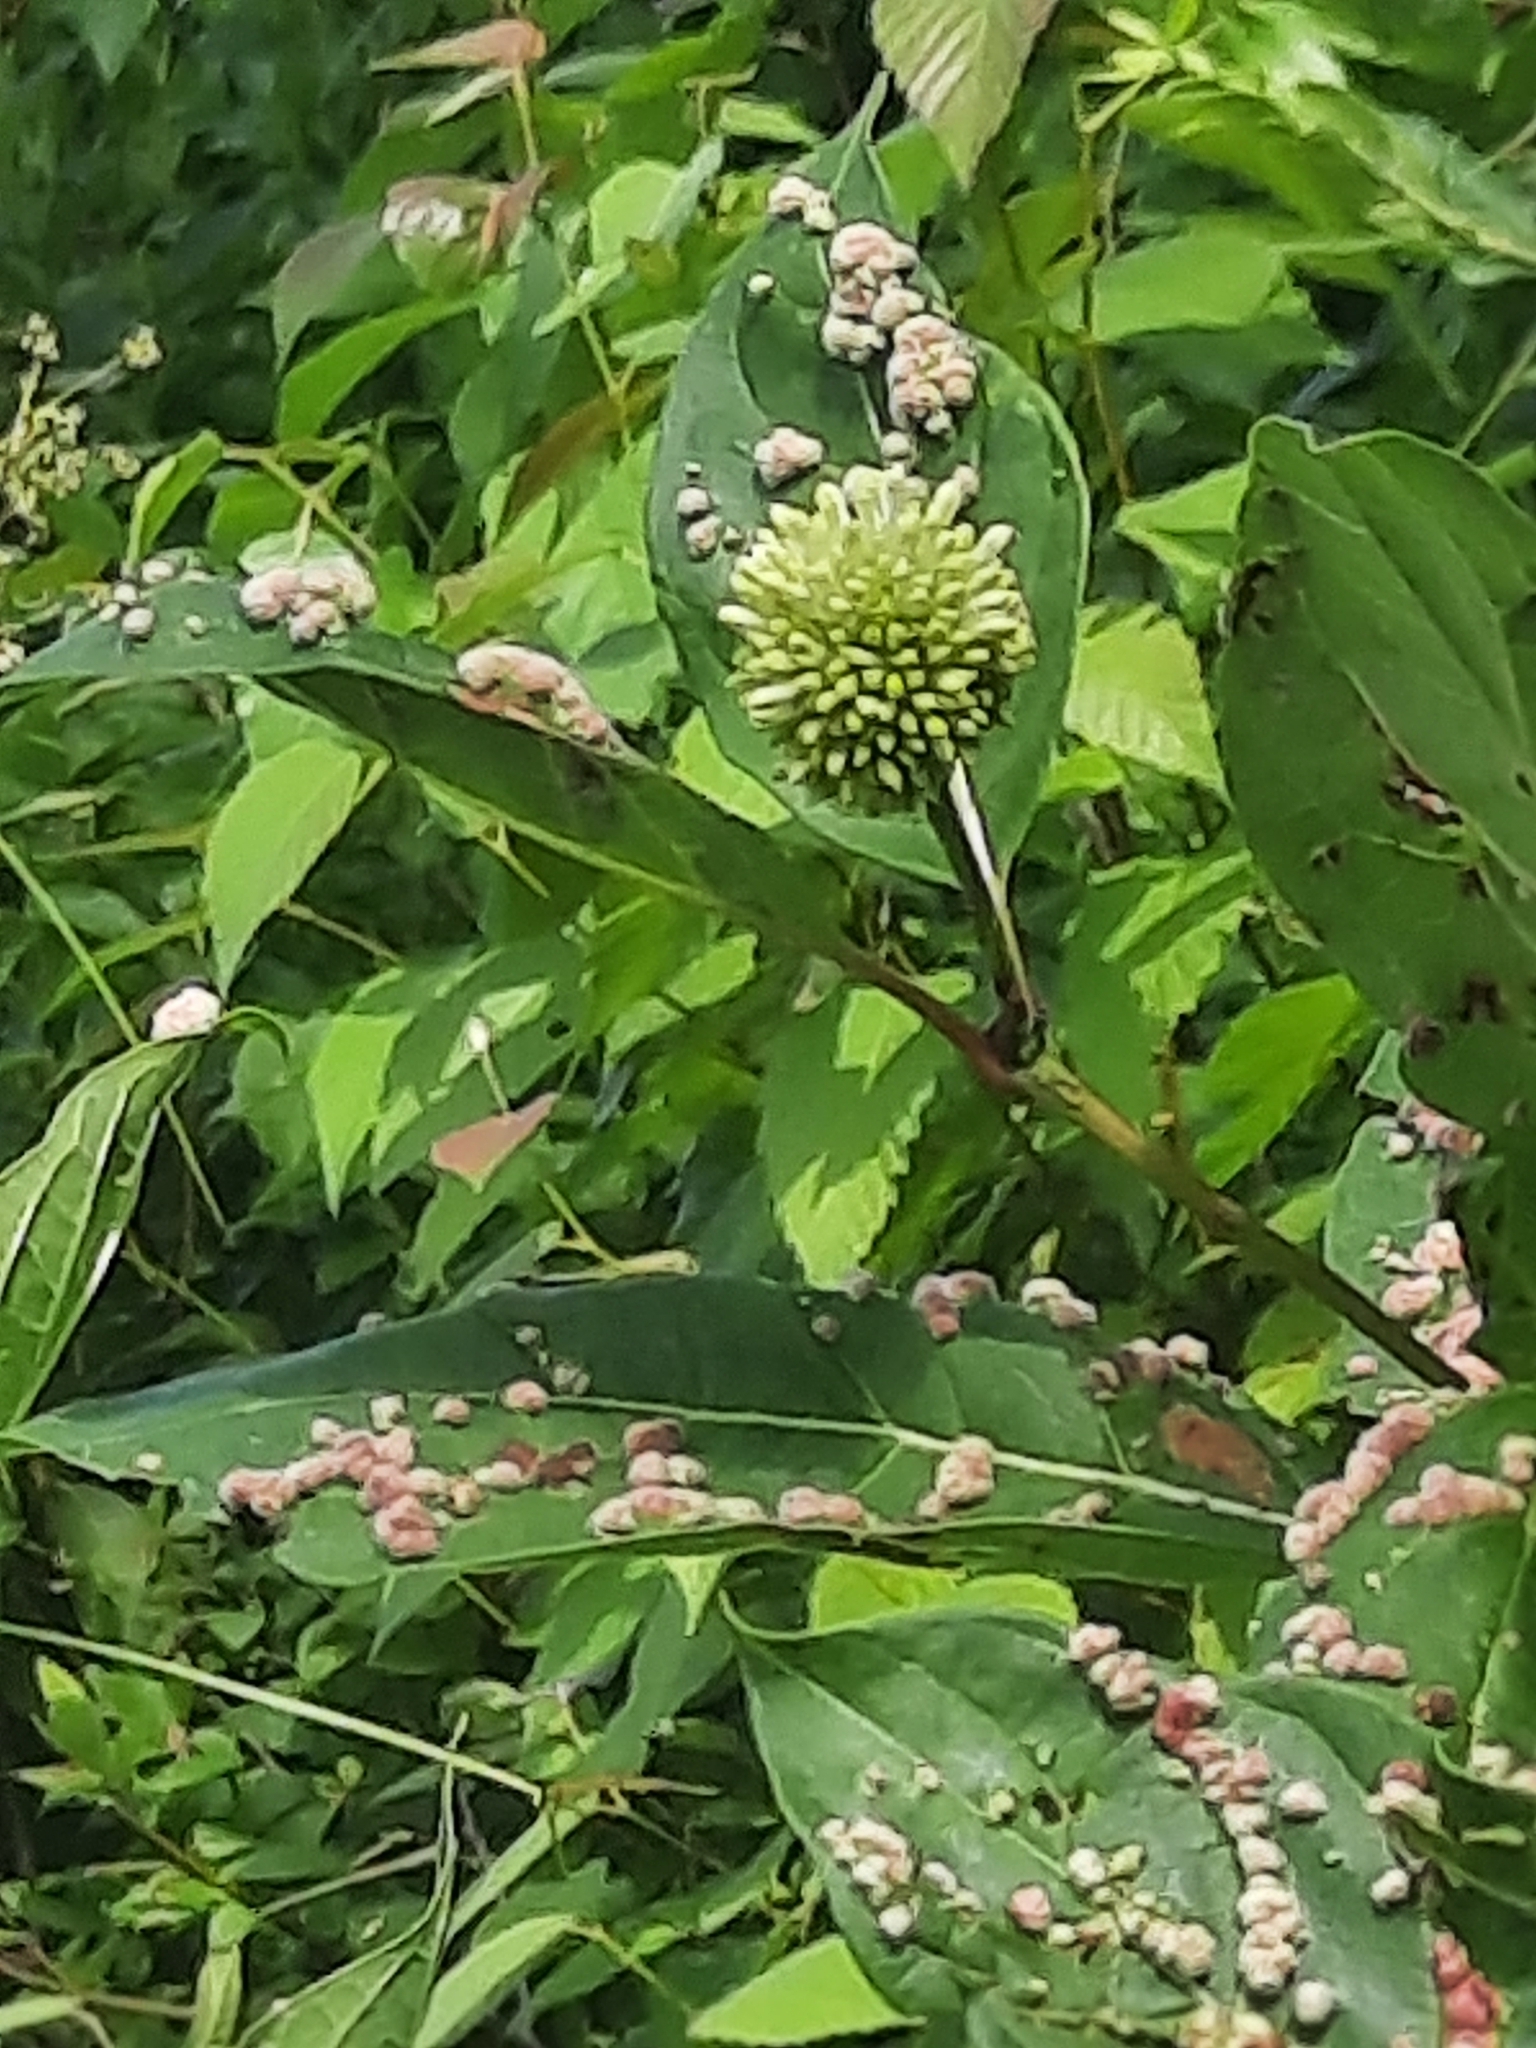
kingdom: Plantae
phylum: Tracheophyta
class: Magnoliopsida
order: Gentianales
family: Rubiaceae
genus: Cephalanthus
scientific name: Cephalanthus occidentalis
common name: Button-willow
